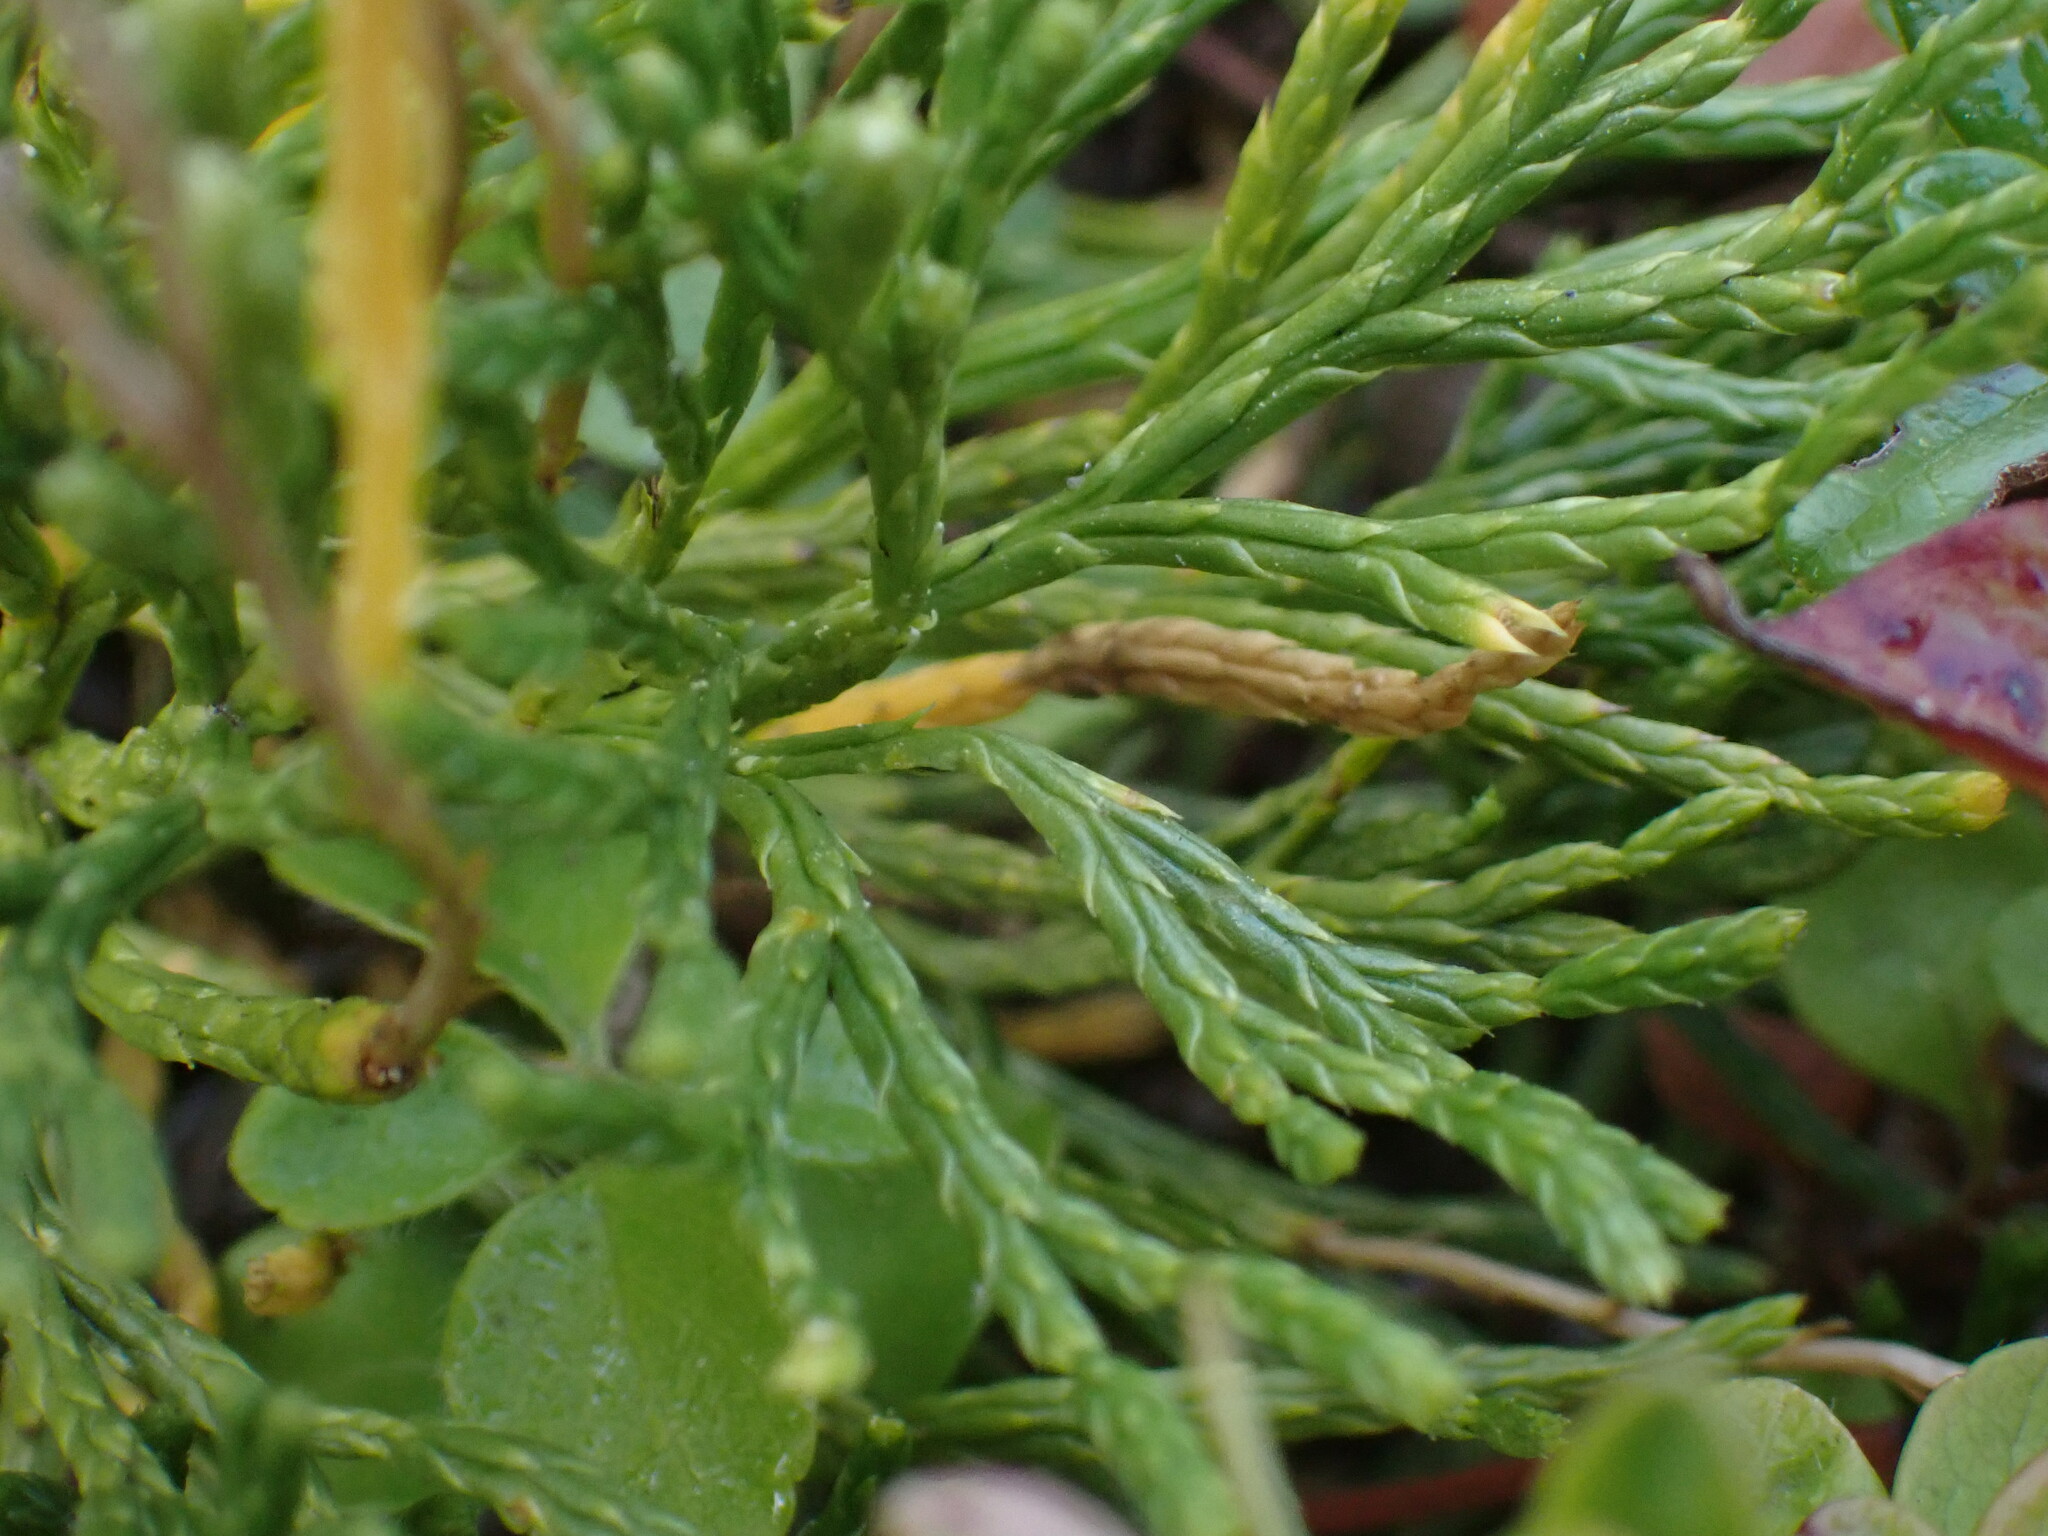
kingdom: Plantae
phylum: Tracheophyta
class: Lycopodiopsida
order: Lycopodiales
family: Lycopodiaceae
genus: Diphasiastrum
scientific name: Diphasiastrum complanatum
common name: Northern running-pine
